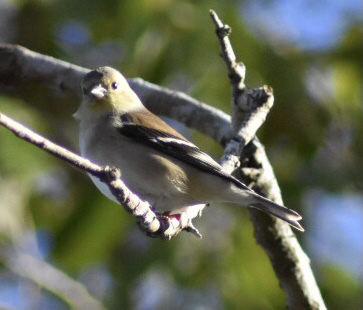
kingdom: Animalia
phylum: Chordata
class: Aves
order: Passeriformes
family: Fringillidae
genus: Spinus
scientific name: Spinus tristis
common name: American goldfinch
